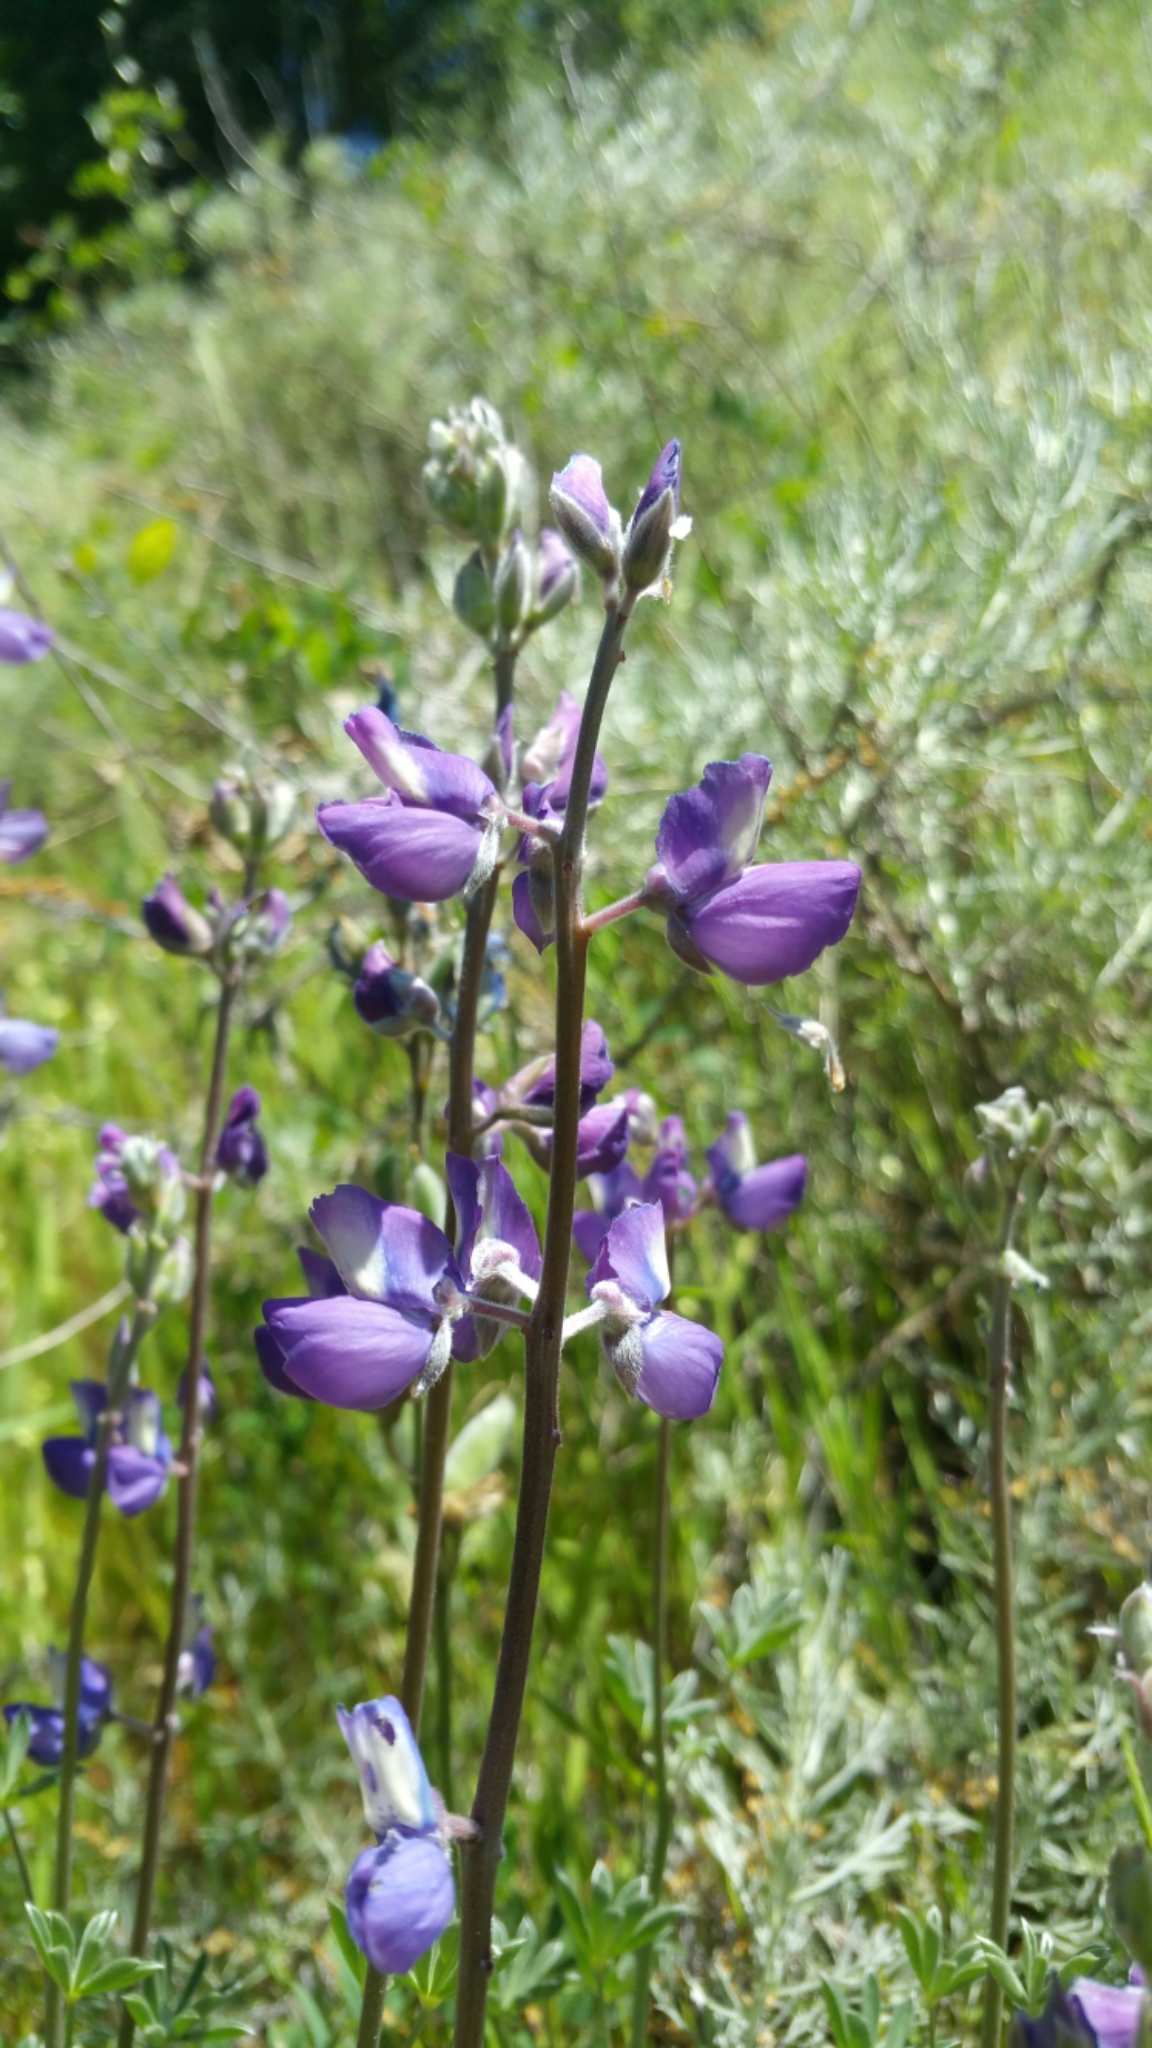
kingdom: Plantae
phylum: Tracheophyta
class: Magnoliopsida
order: Fabales
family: Fabaceae
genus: Lupinus
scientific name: Lupinus albifrons
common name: Foothill lupine
